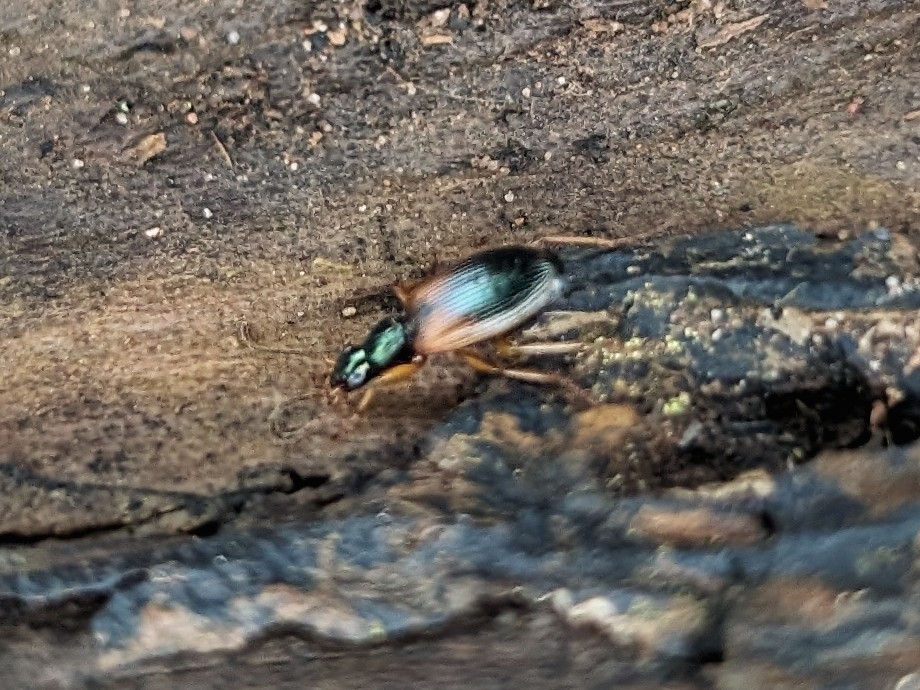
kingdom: Animalia
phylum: Arthropoda
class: Insecta
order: Coleoptera
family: Carabidae
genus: Anchomenus
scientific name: Anchomenus dorsalis
